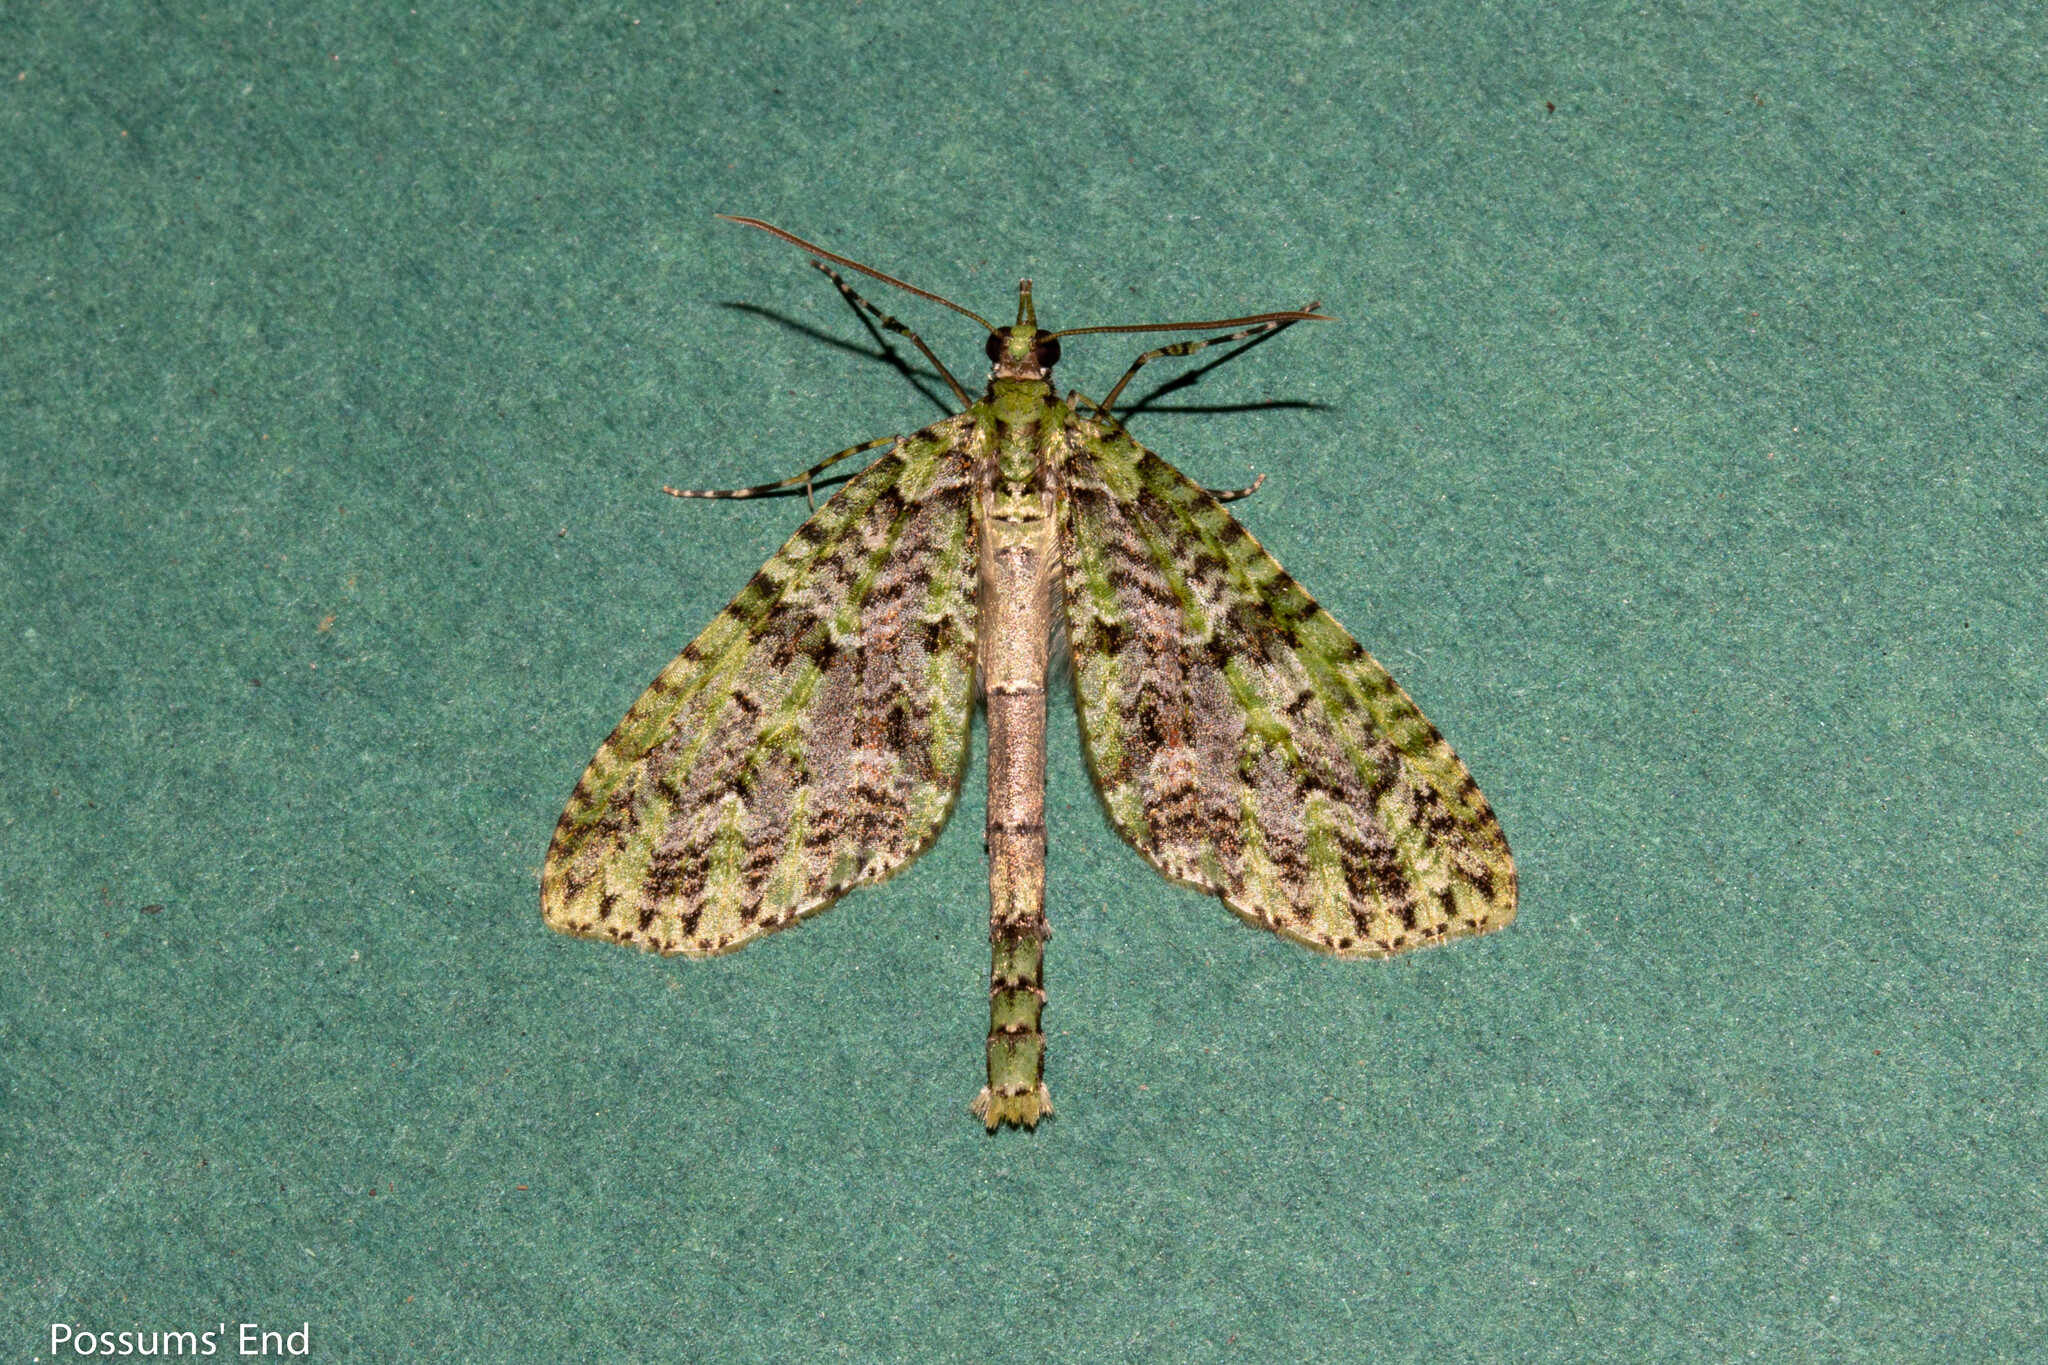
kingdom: Animalia
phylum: Arthropoda
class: Insecta
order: Lepidoptera
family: Geometridae
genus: Tatosoma
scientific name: Tatosoma tipulata
